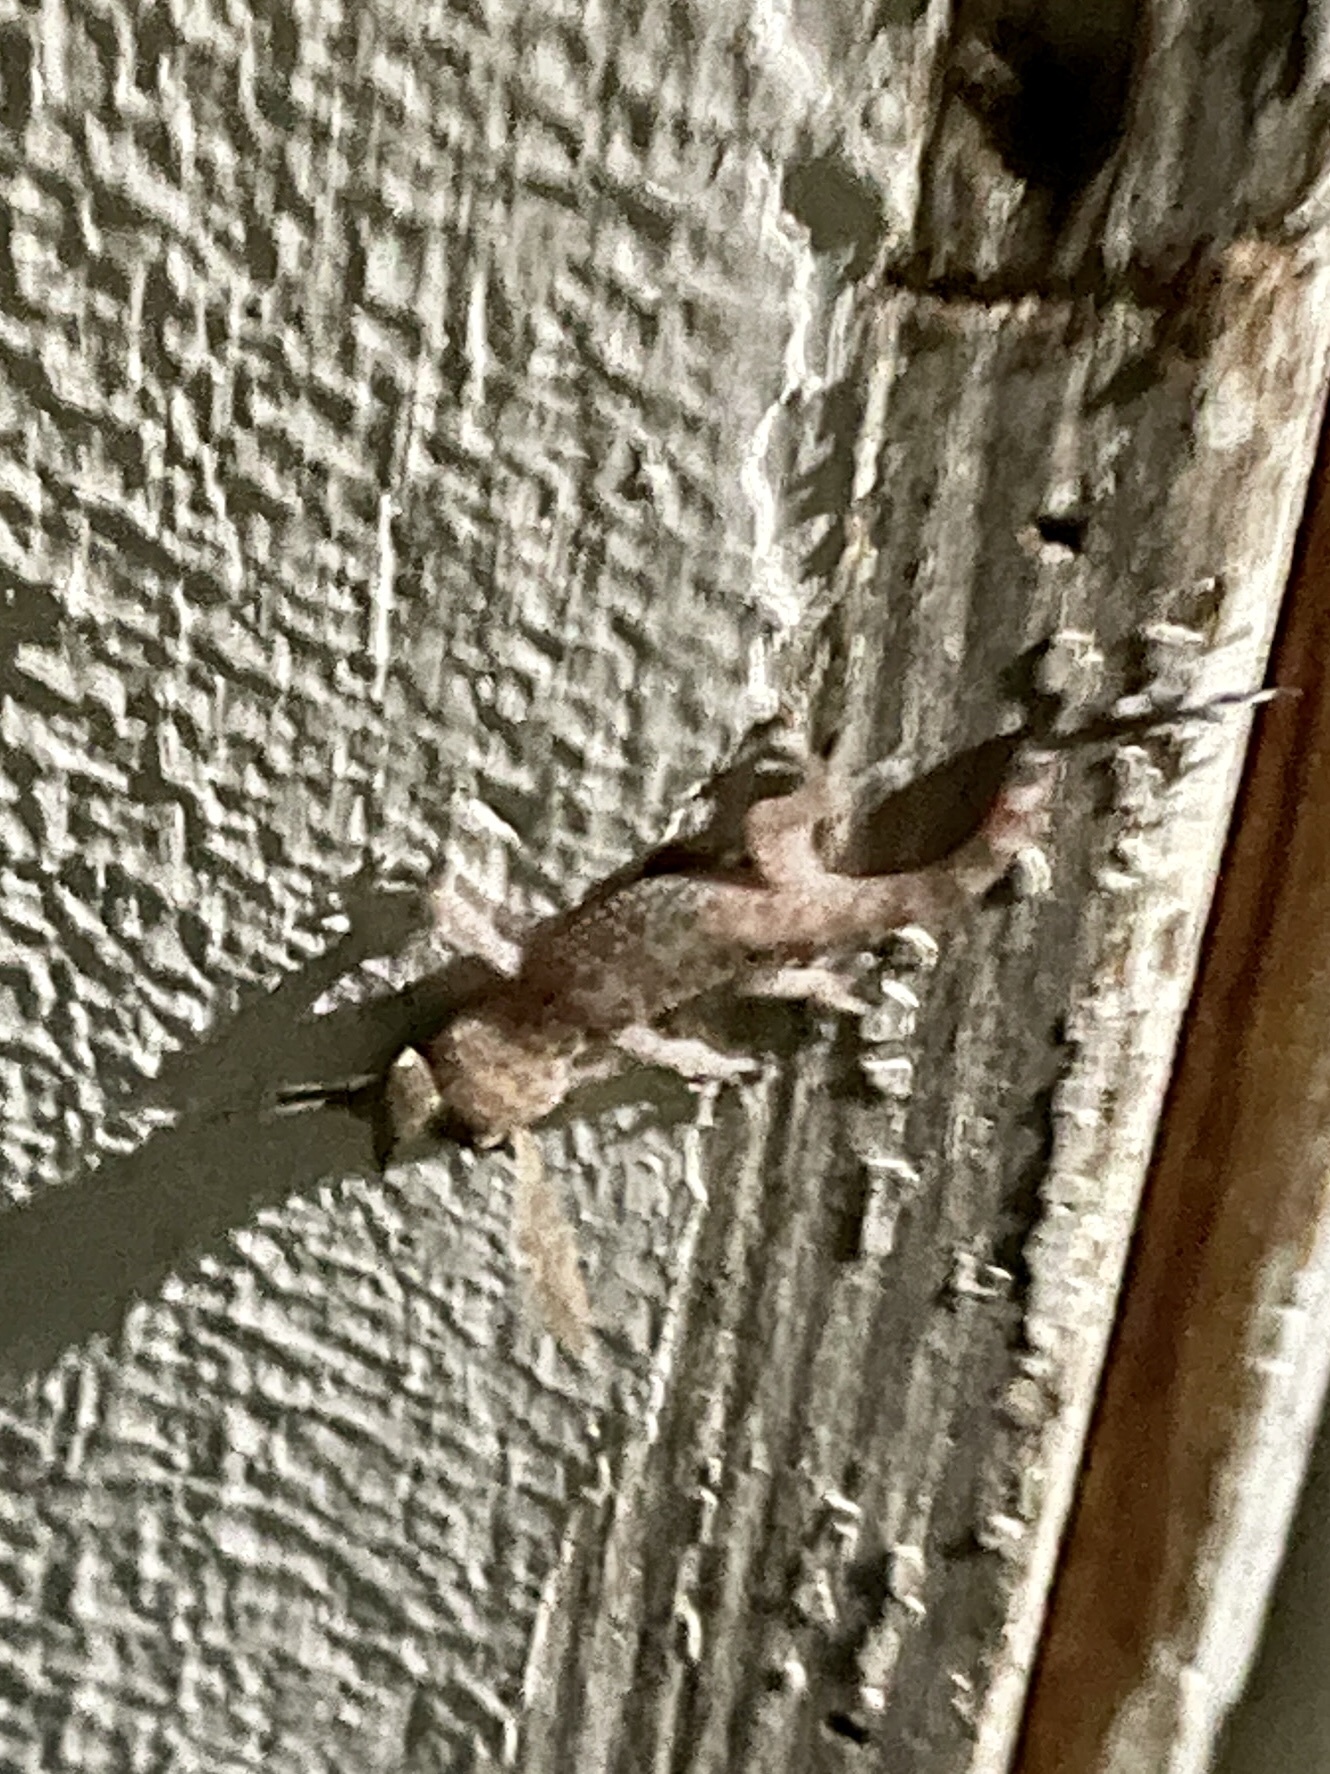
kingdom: Animalia
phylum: Chordata
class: Squamata
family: Gekkonidae
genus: Hemidactylus
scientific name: Hemidactylus turcicus
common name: Turkish gecko
